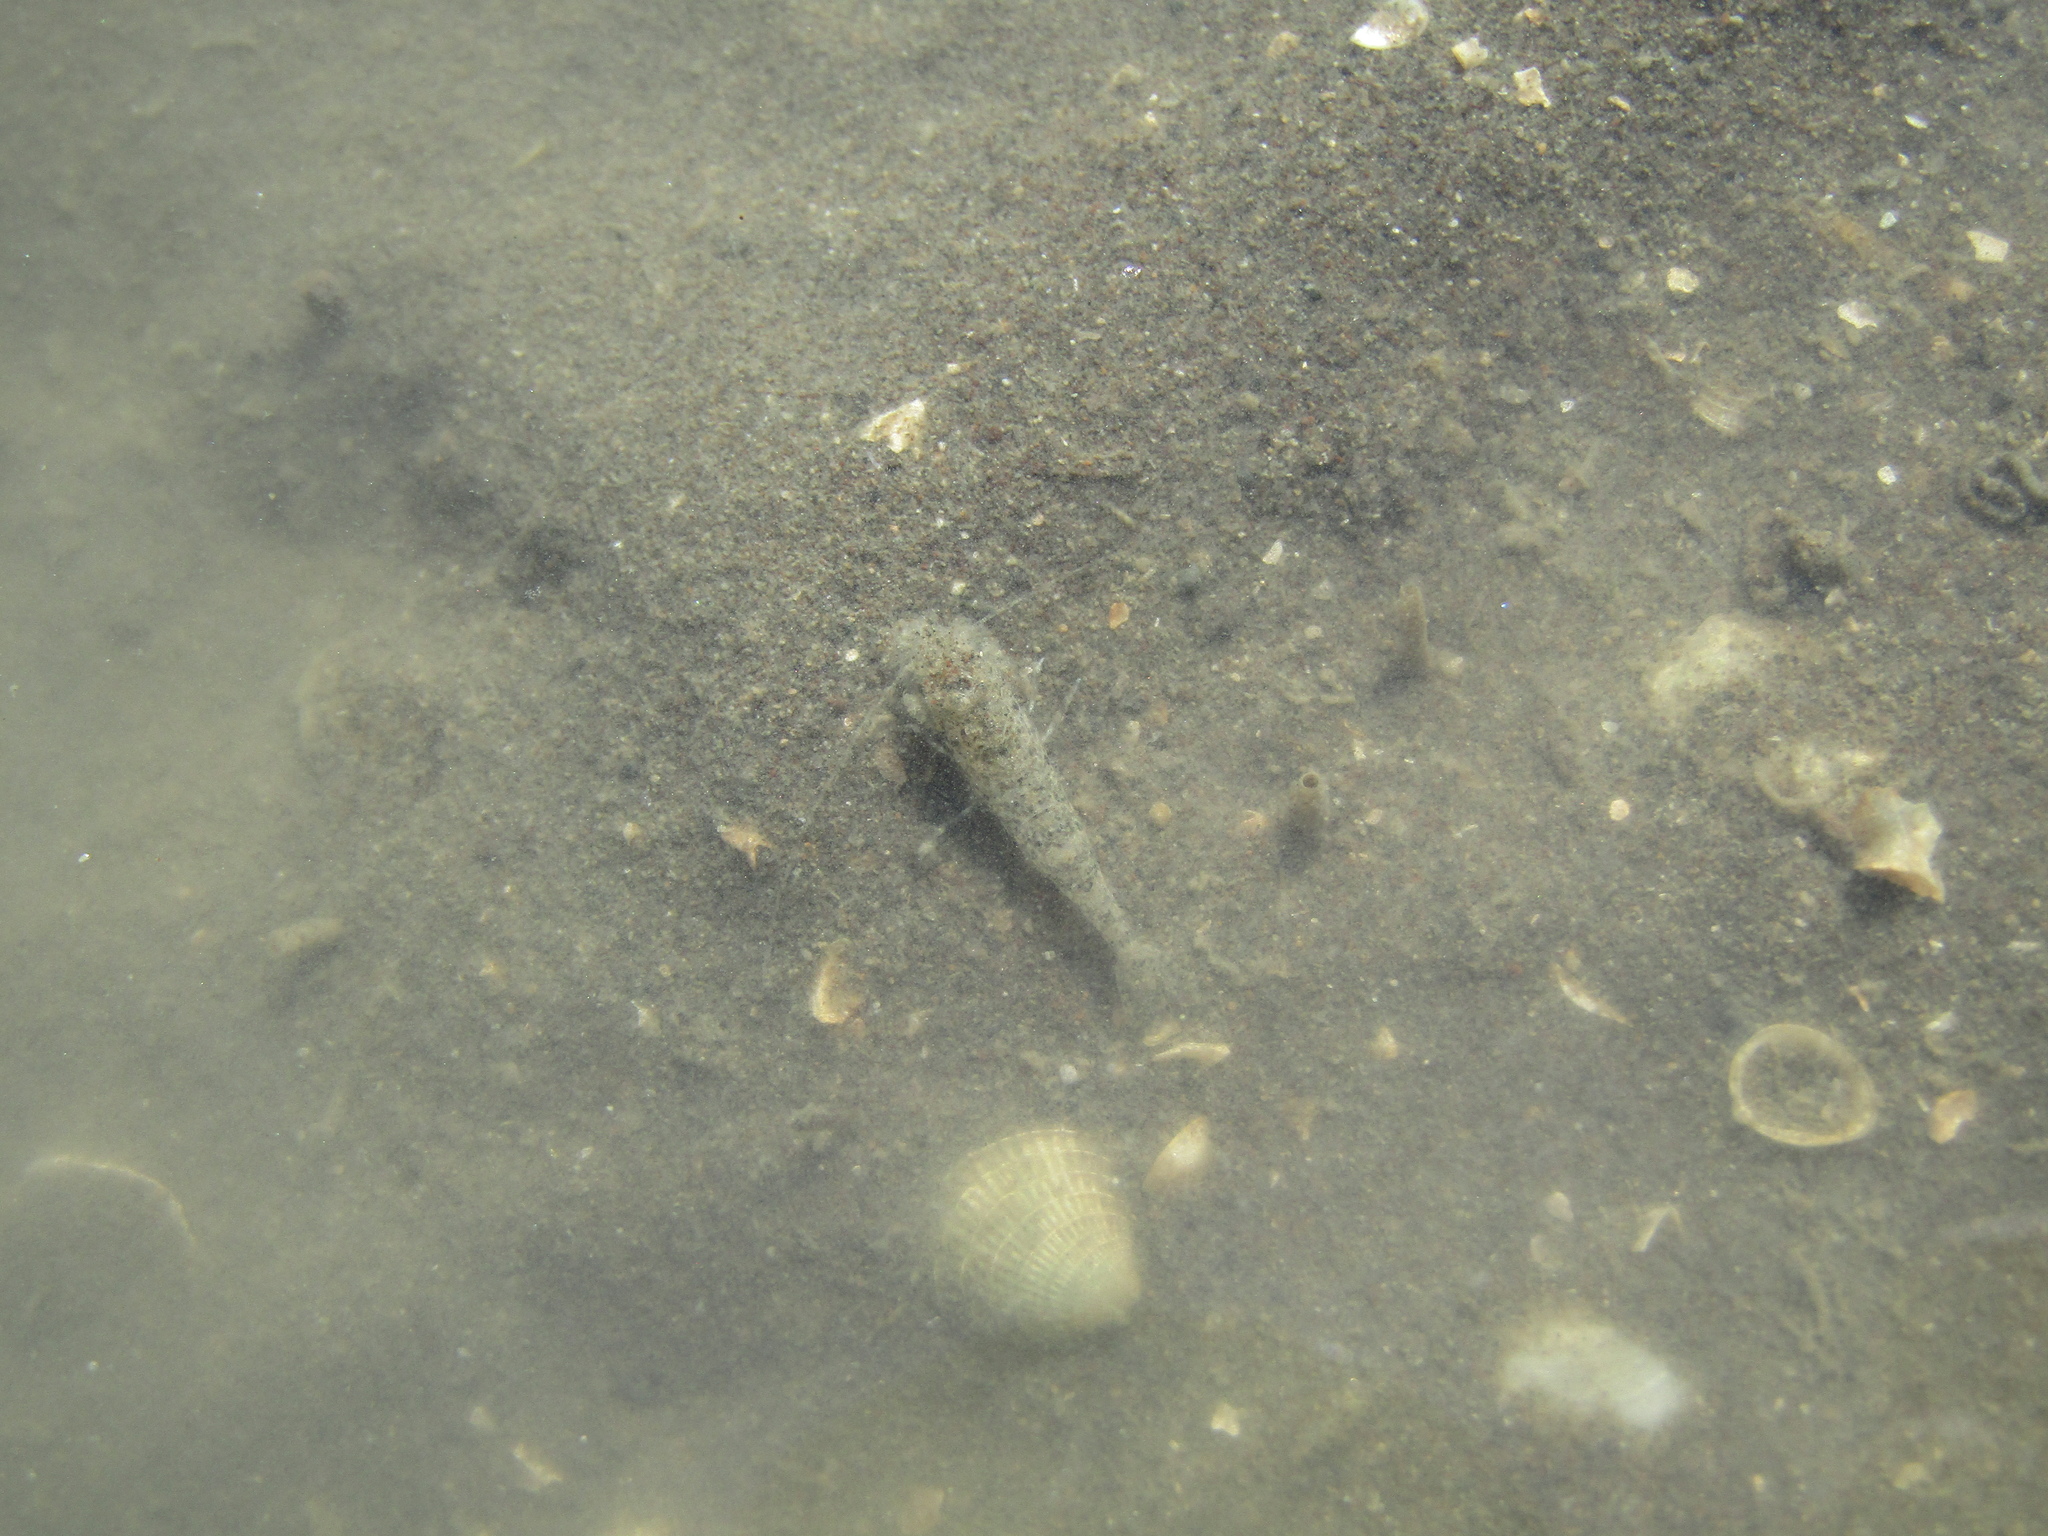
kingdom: Animalia
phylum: Arthropoda
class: Malacostraca
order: Decapoda
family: Crangonidae
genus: Philocheras
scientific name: Philocheras australis
